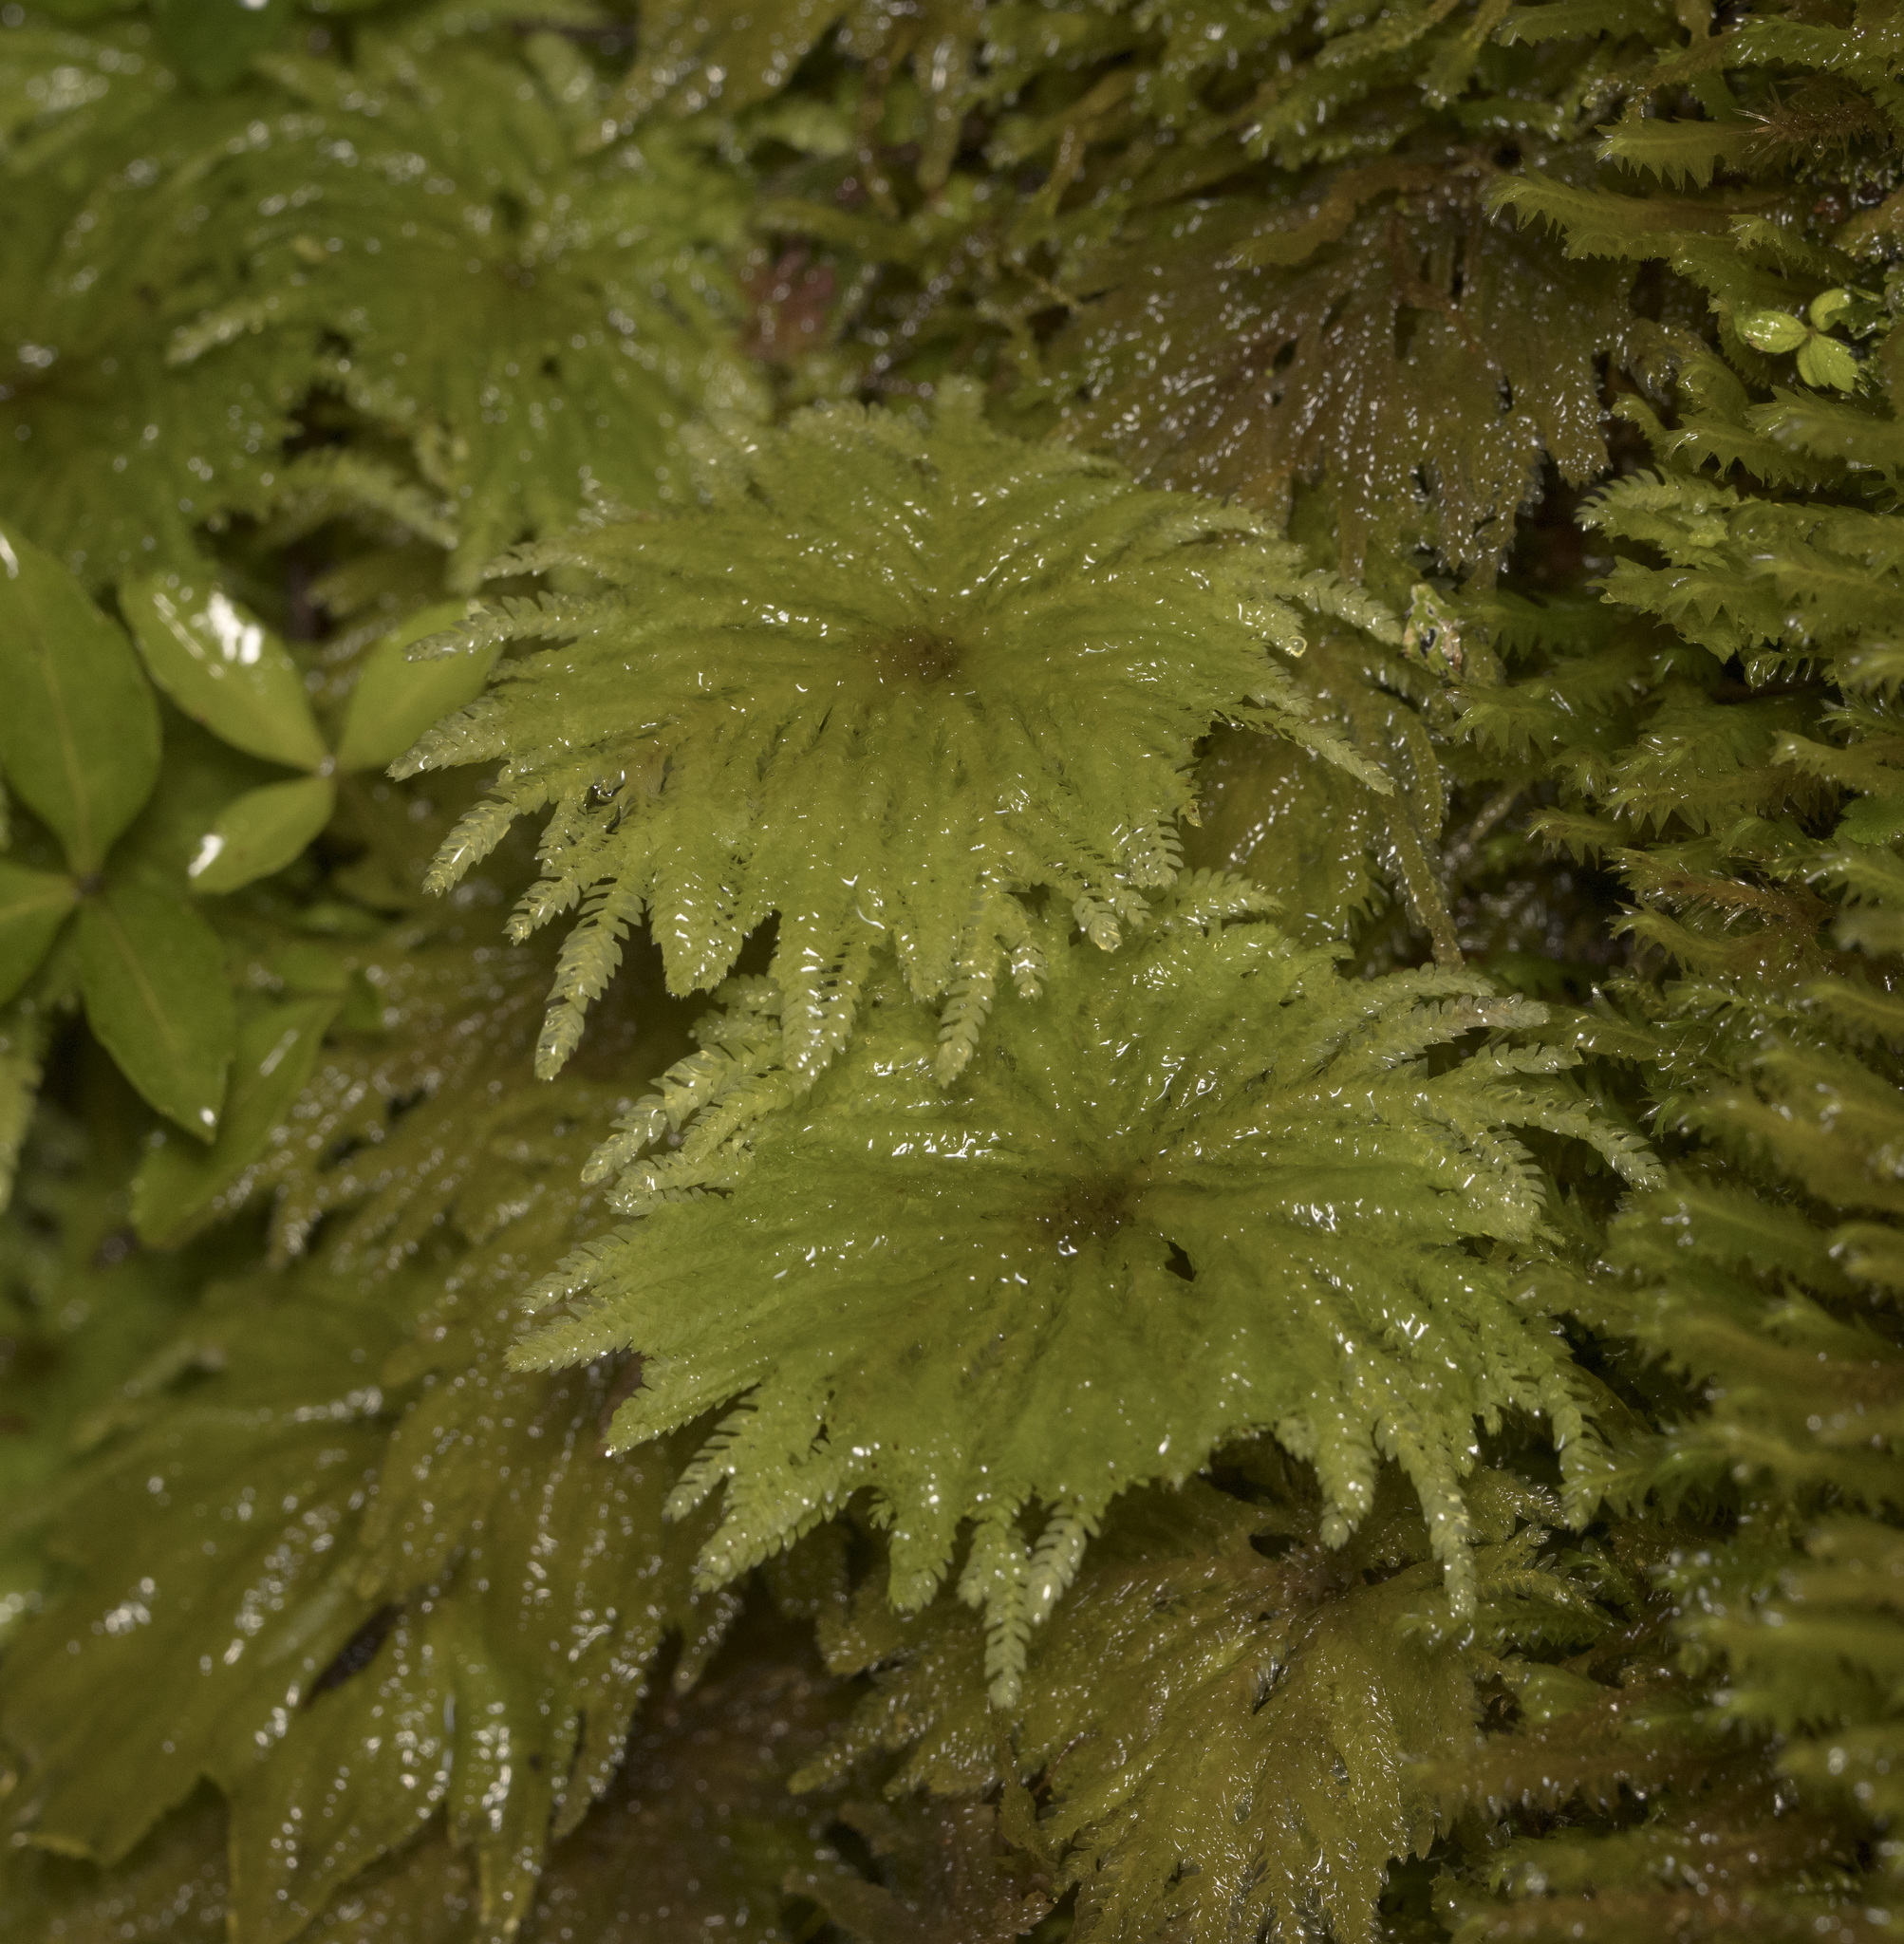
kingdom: Plantae
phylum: Bryophyta
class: Bryopsida
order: Hypopterygiales
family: Hypopterygiaceae
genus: Arbusculohypopterygium
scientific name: Arbusculohypopterygium arbuscula
